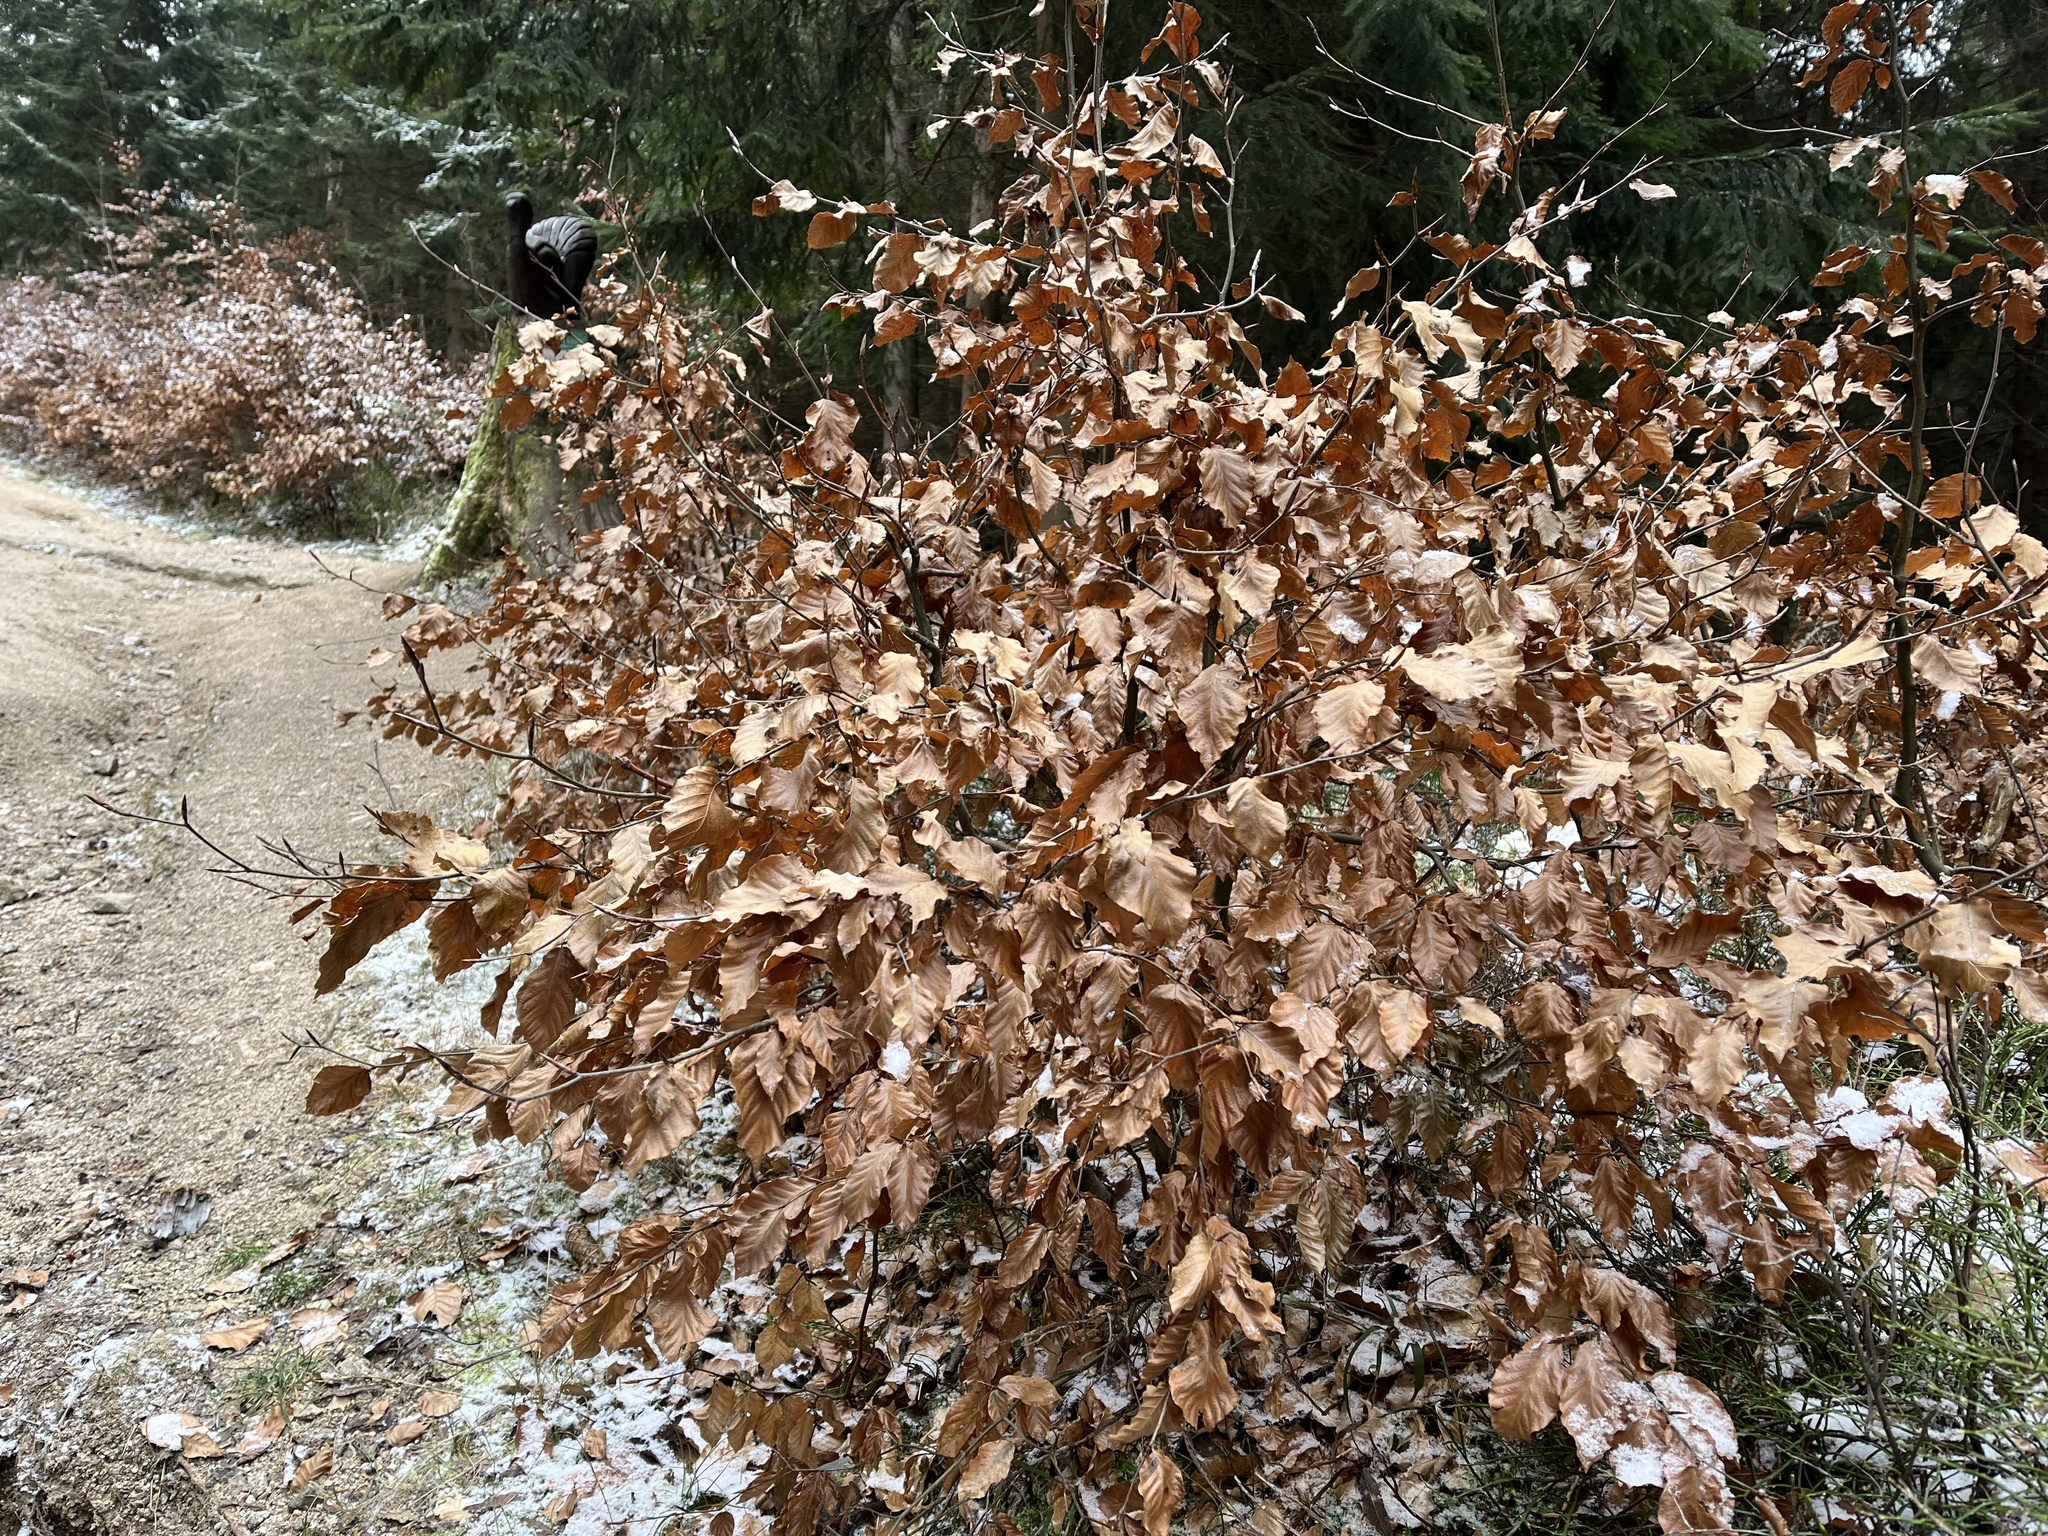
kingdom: Plantae
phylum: Tracheophyta
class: Magnoliopsida
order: Fagales
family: Fagaceae
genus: Fagus
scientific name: Fagus sylvatica
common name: Beech
